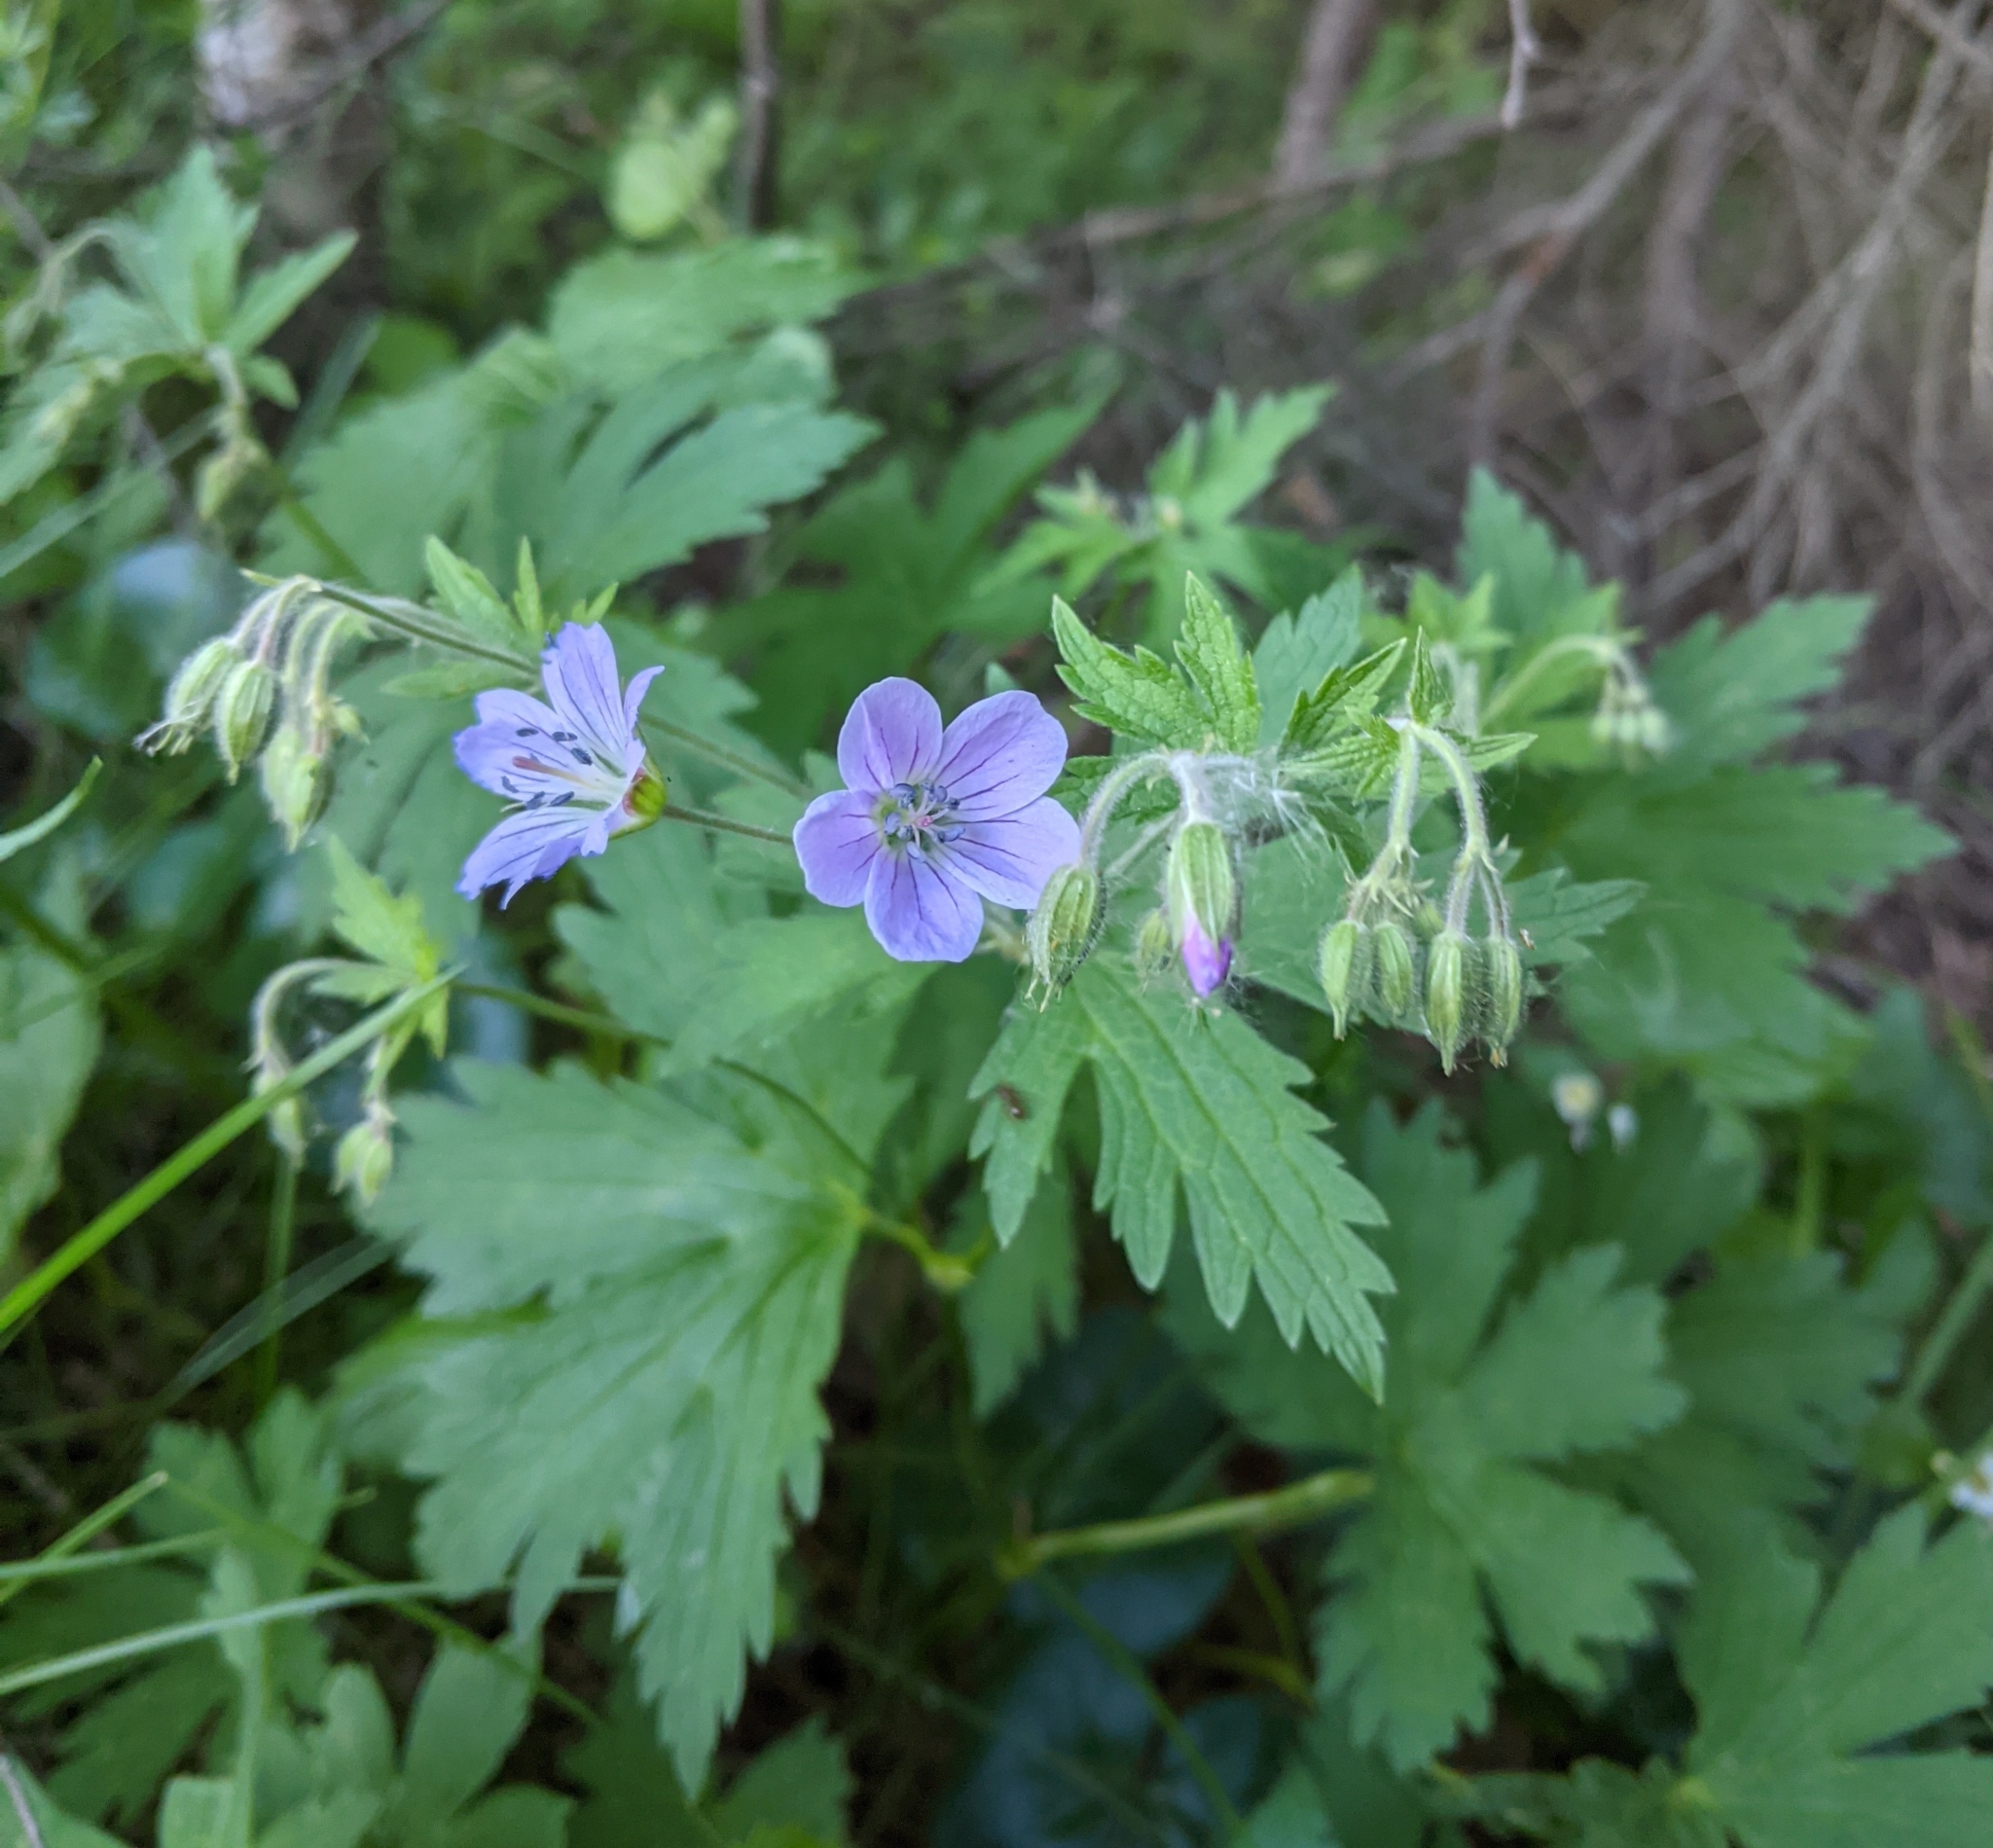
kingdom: Plantae
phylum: Tracheophyta
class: Magnoliopsida
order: Geraniales
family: Geraniaceae
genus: Geranium
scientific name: Geranium sylvaticum
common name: Wood crane's-bill
